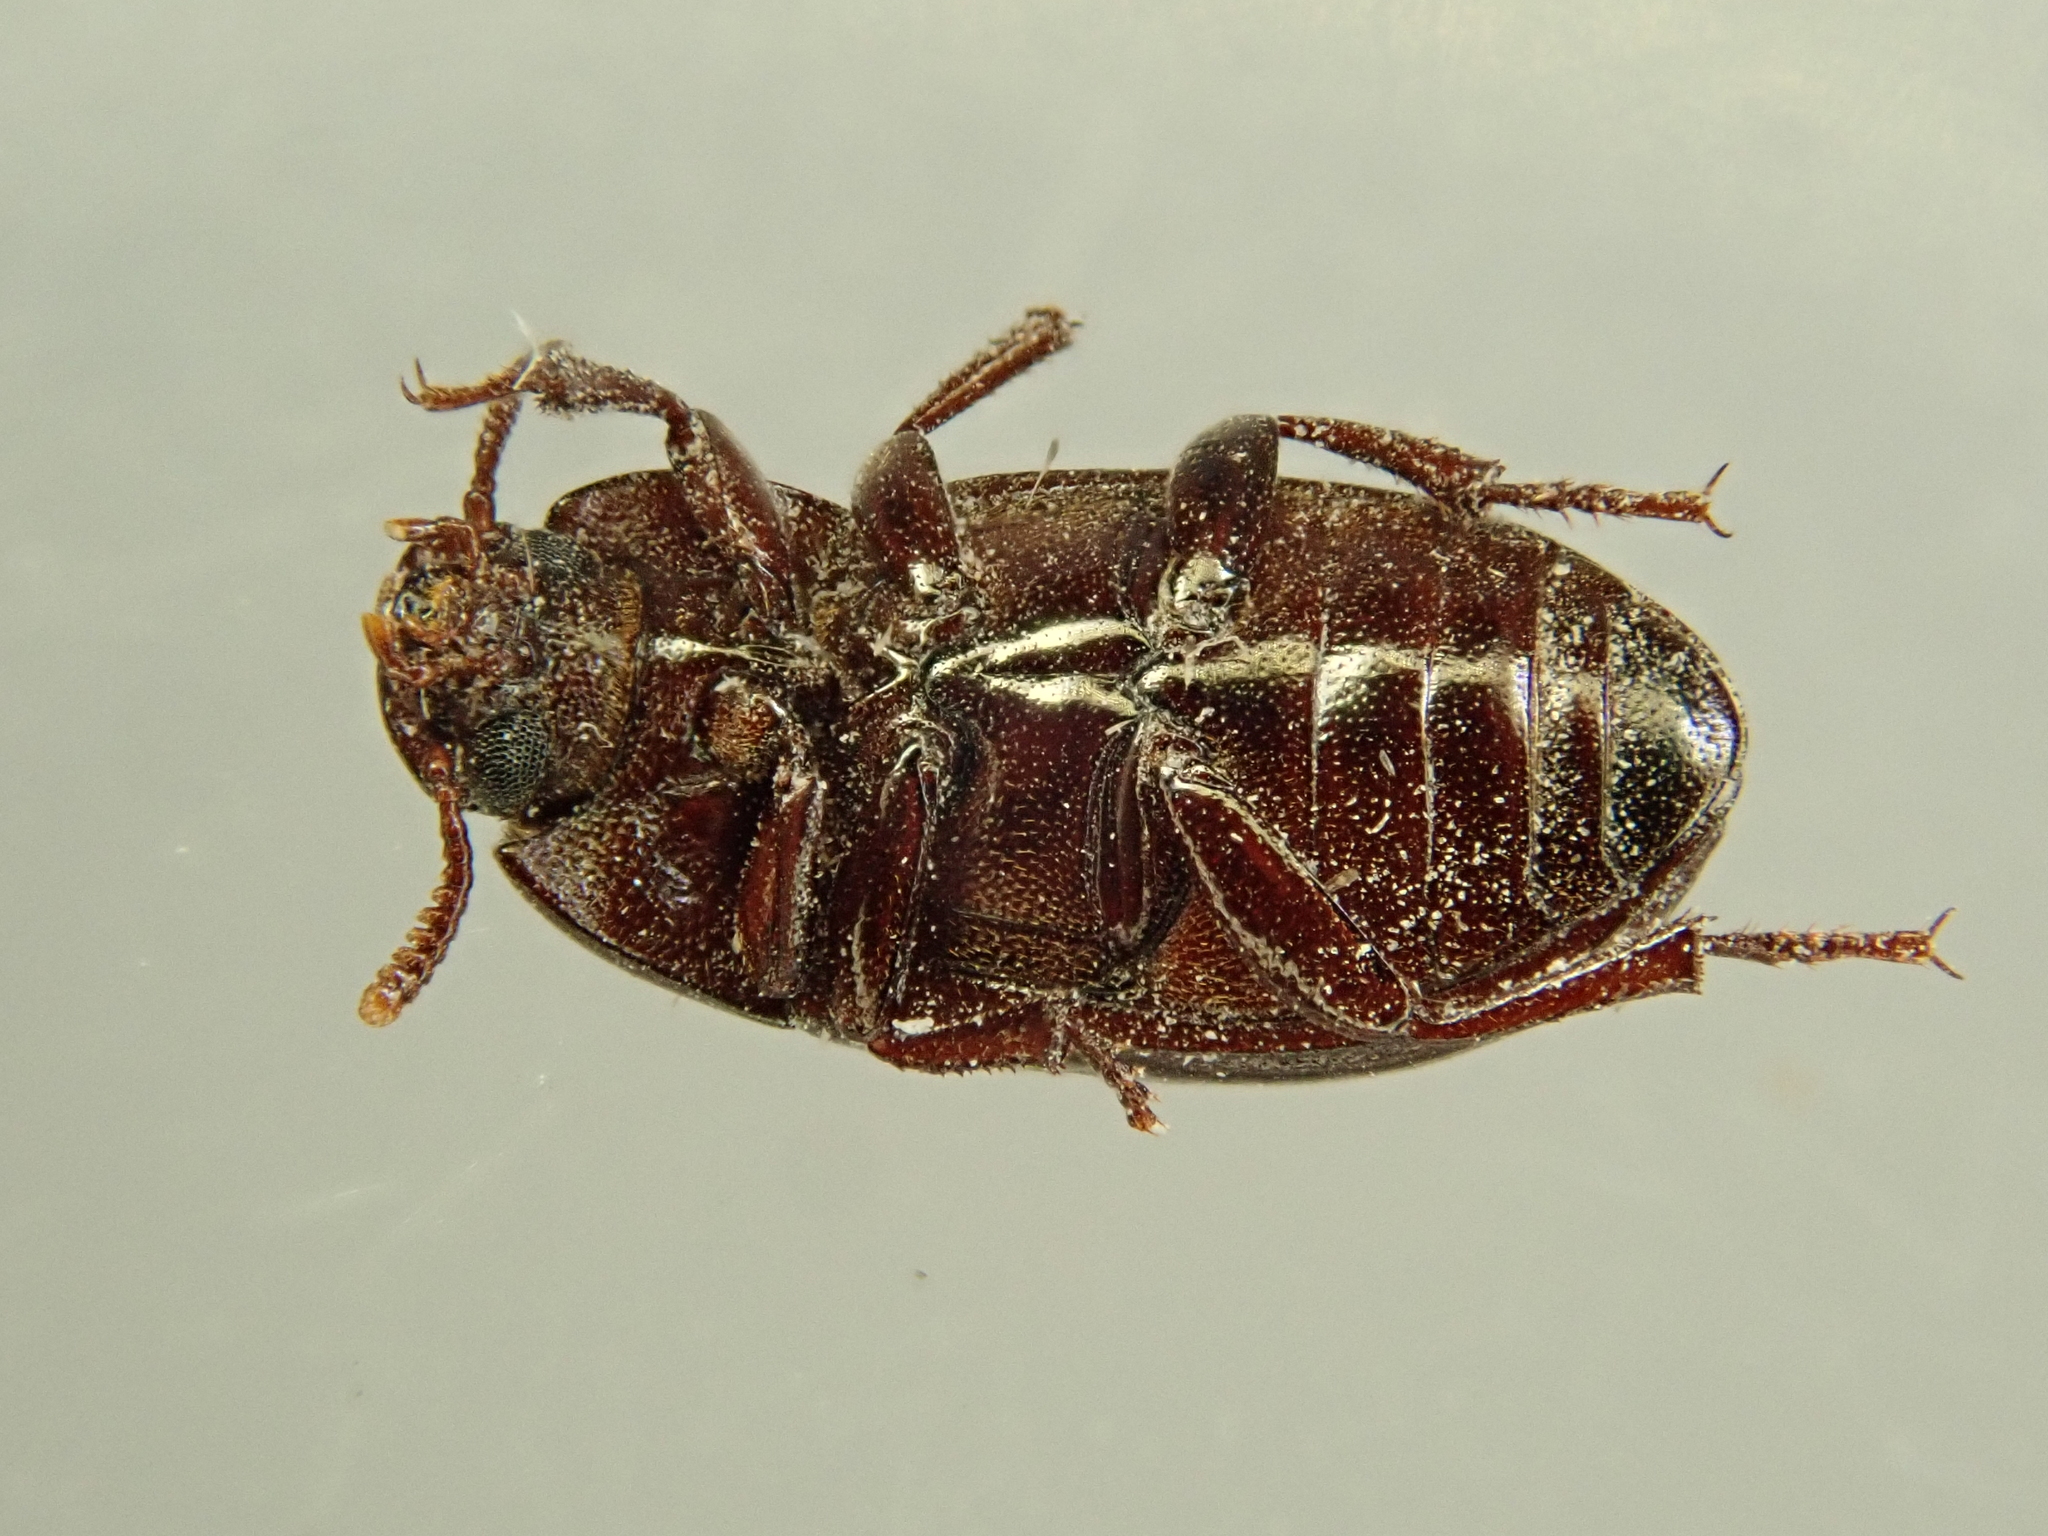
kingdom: Animalia
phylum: Arthropoda
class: Insecta
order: Coleoptera
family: Tenebrionidae
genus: Alphitobius
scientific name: Alphitobius diaperinus
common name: Lesser mealworm
